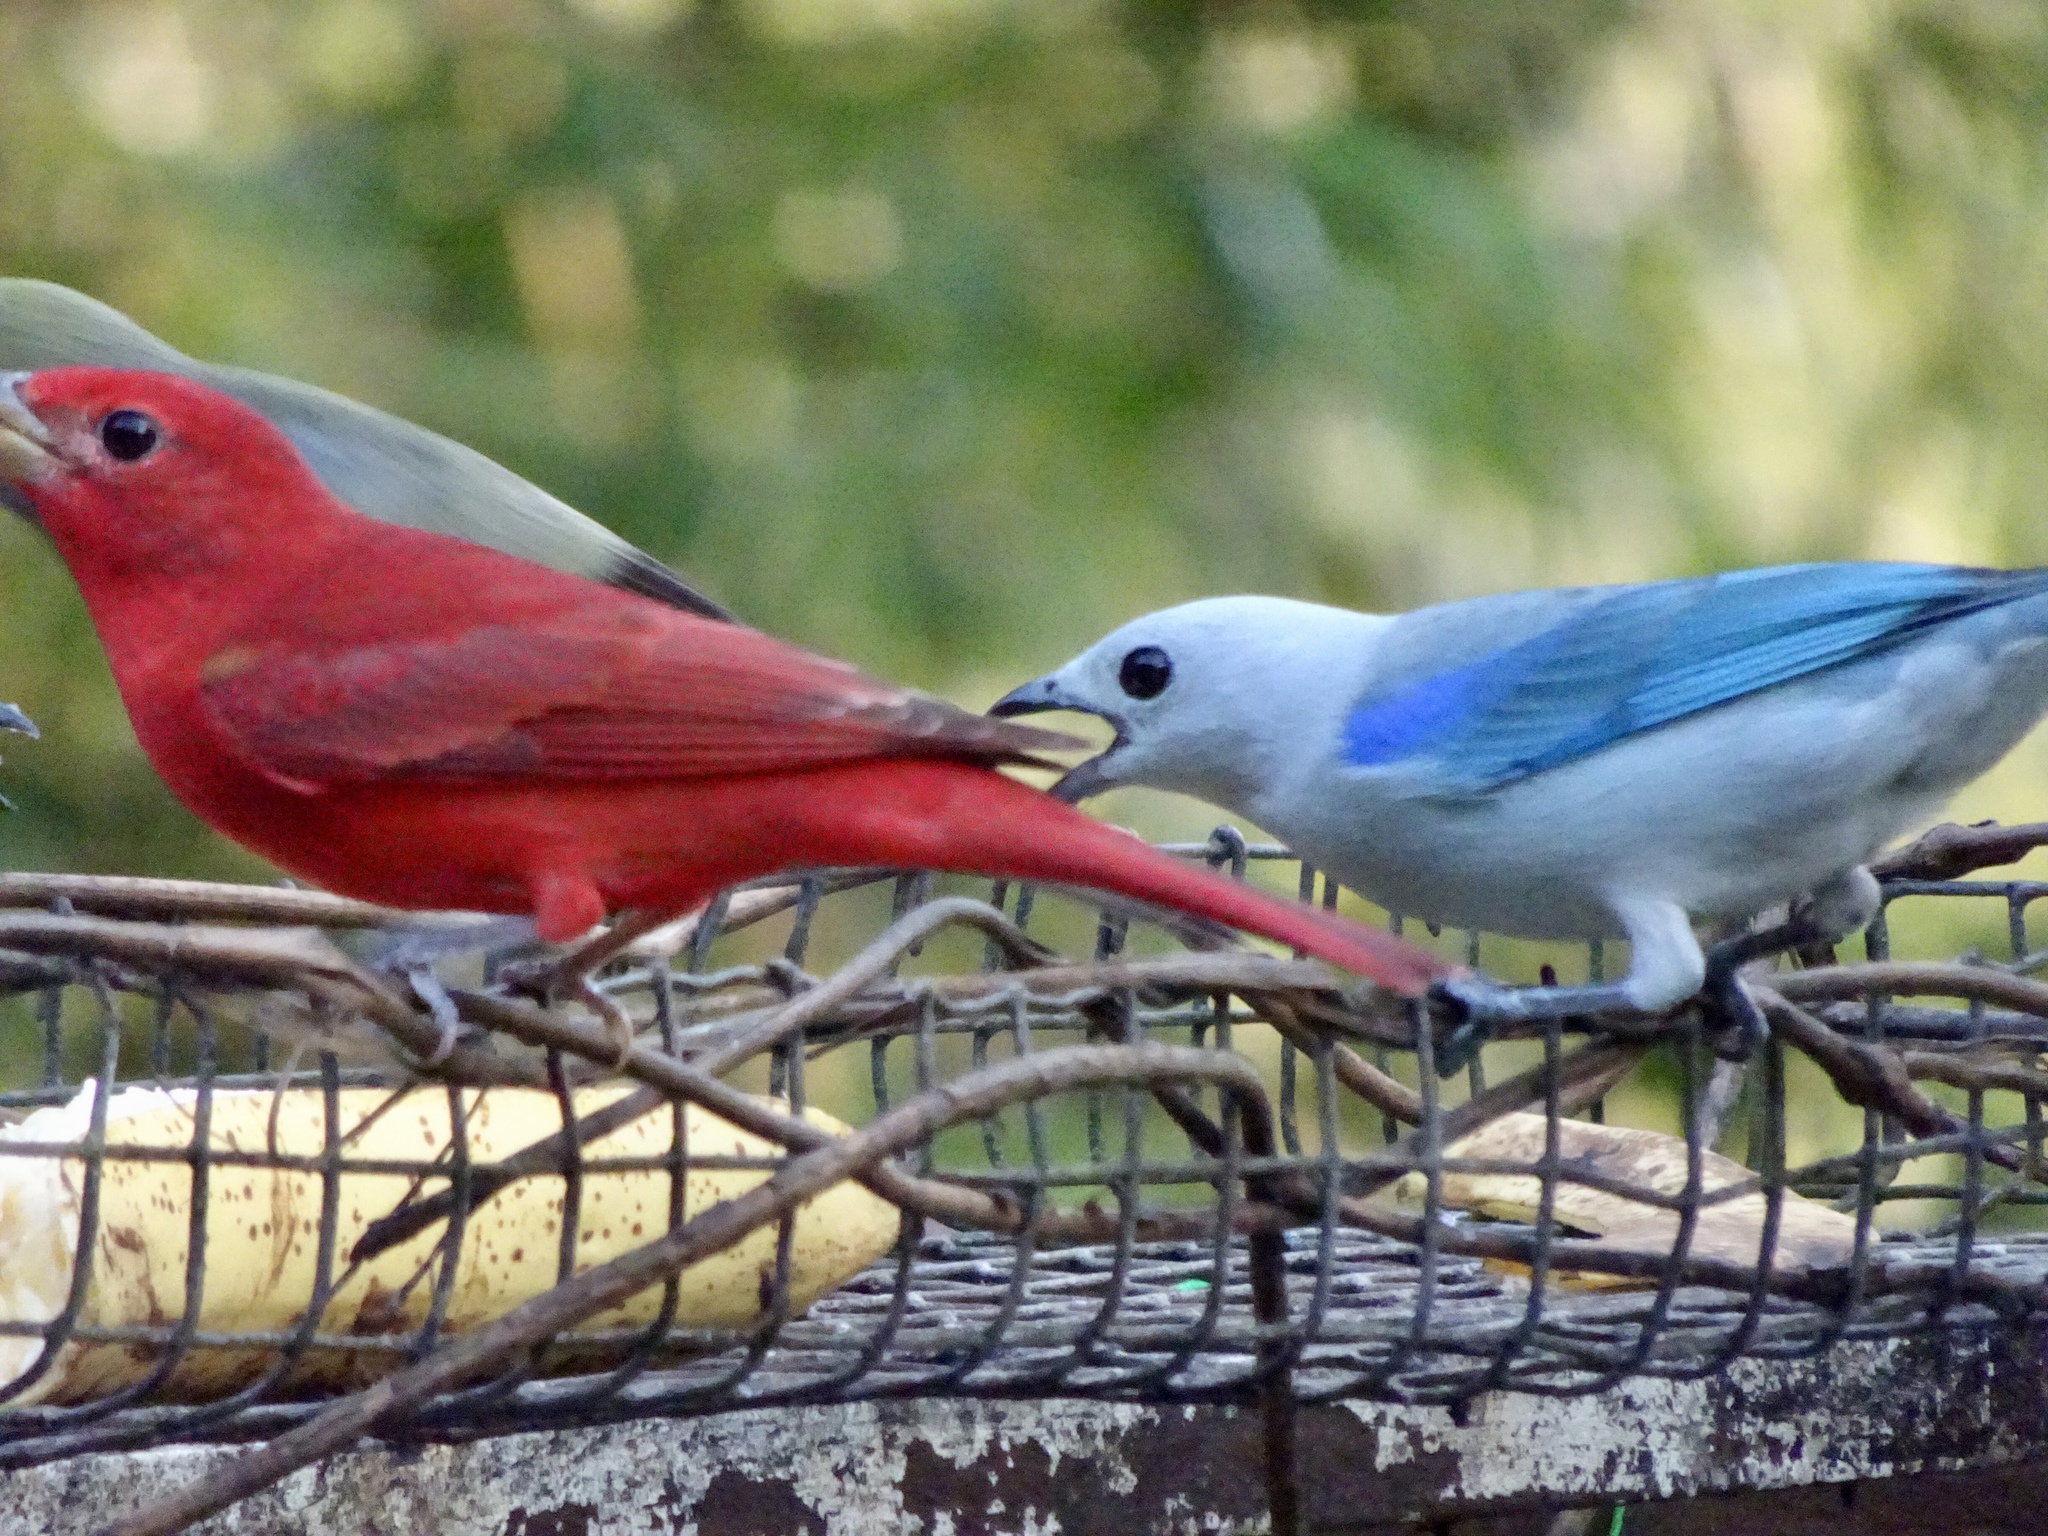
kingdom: Animalia
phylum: Chordata
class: Aves
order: Passeriformes
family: Thraupidae
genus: Thraupis
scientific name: Thraupis episcopus
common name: Blue-grey tanager
